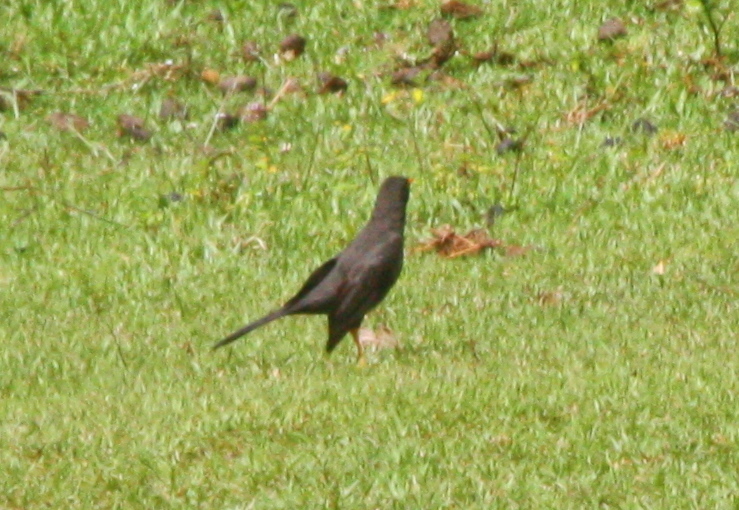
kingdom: Animalia
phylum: Chordata
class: Aves
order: Passeriformes
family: Turdidae
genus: Turdus
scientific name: Turdus fuscater
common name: Great thrush
